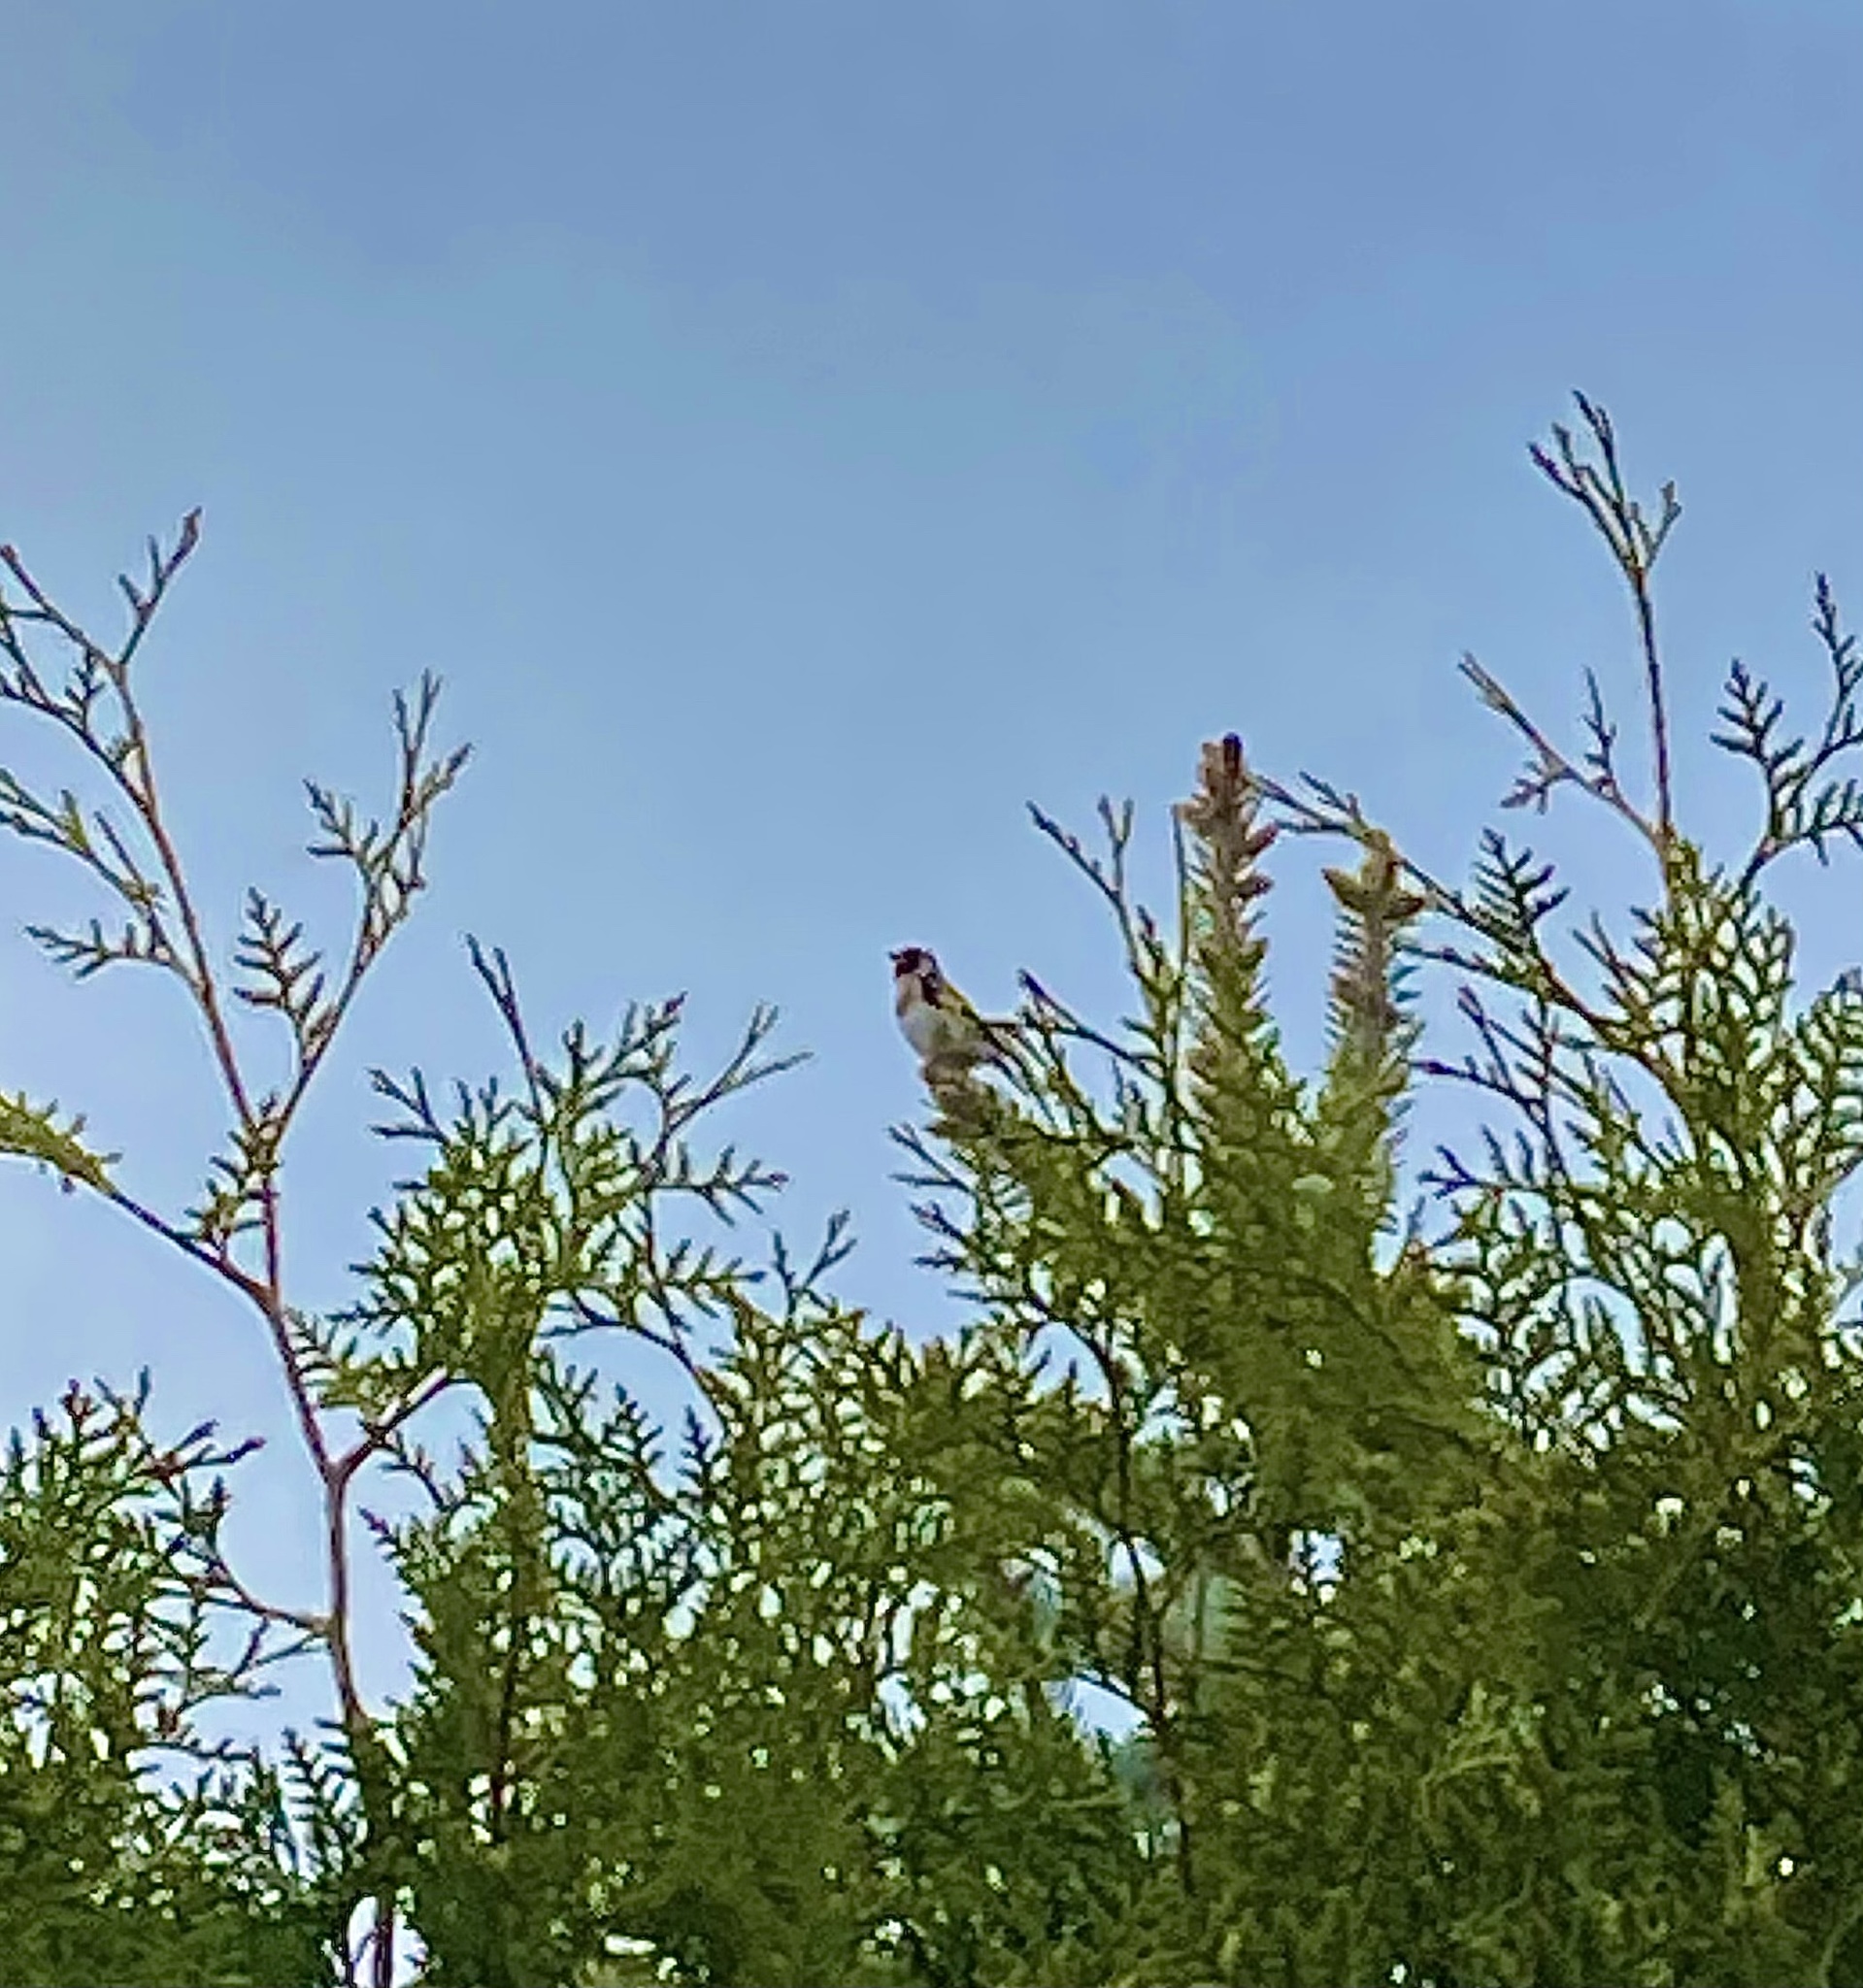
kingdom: Animalia
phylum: Chordata
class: Aves
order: Passeriformes
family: Fringillidae
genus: Carduelis
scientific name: Carduelis carduelis
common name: European goldfinch
